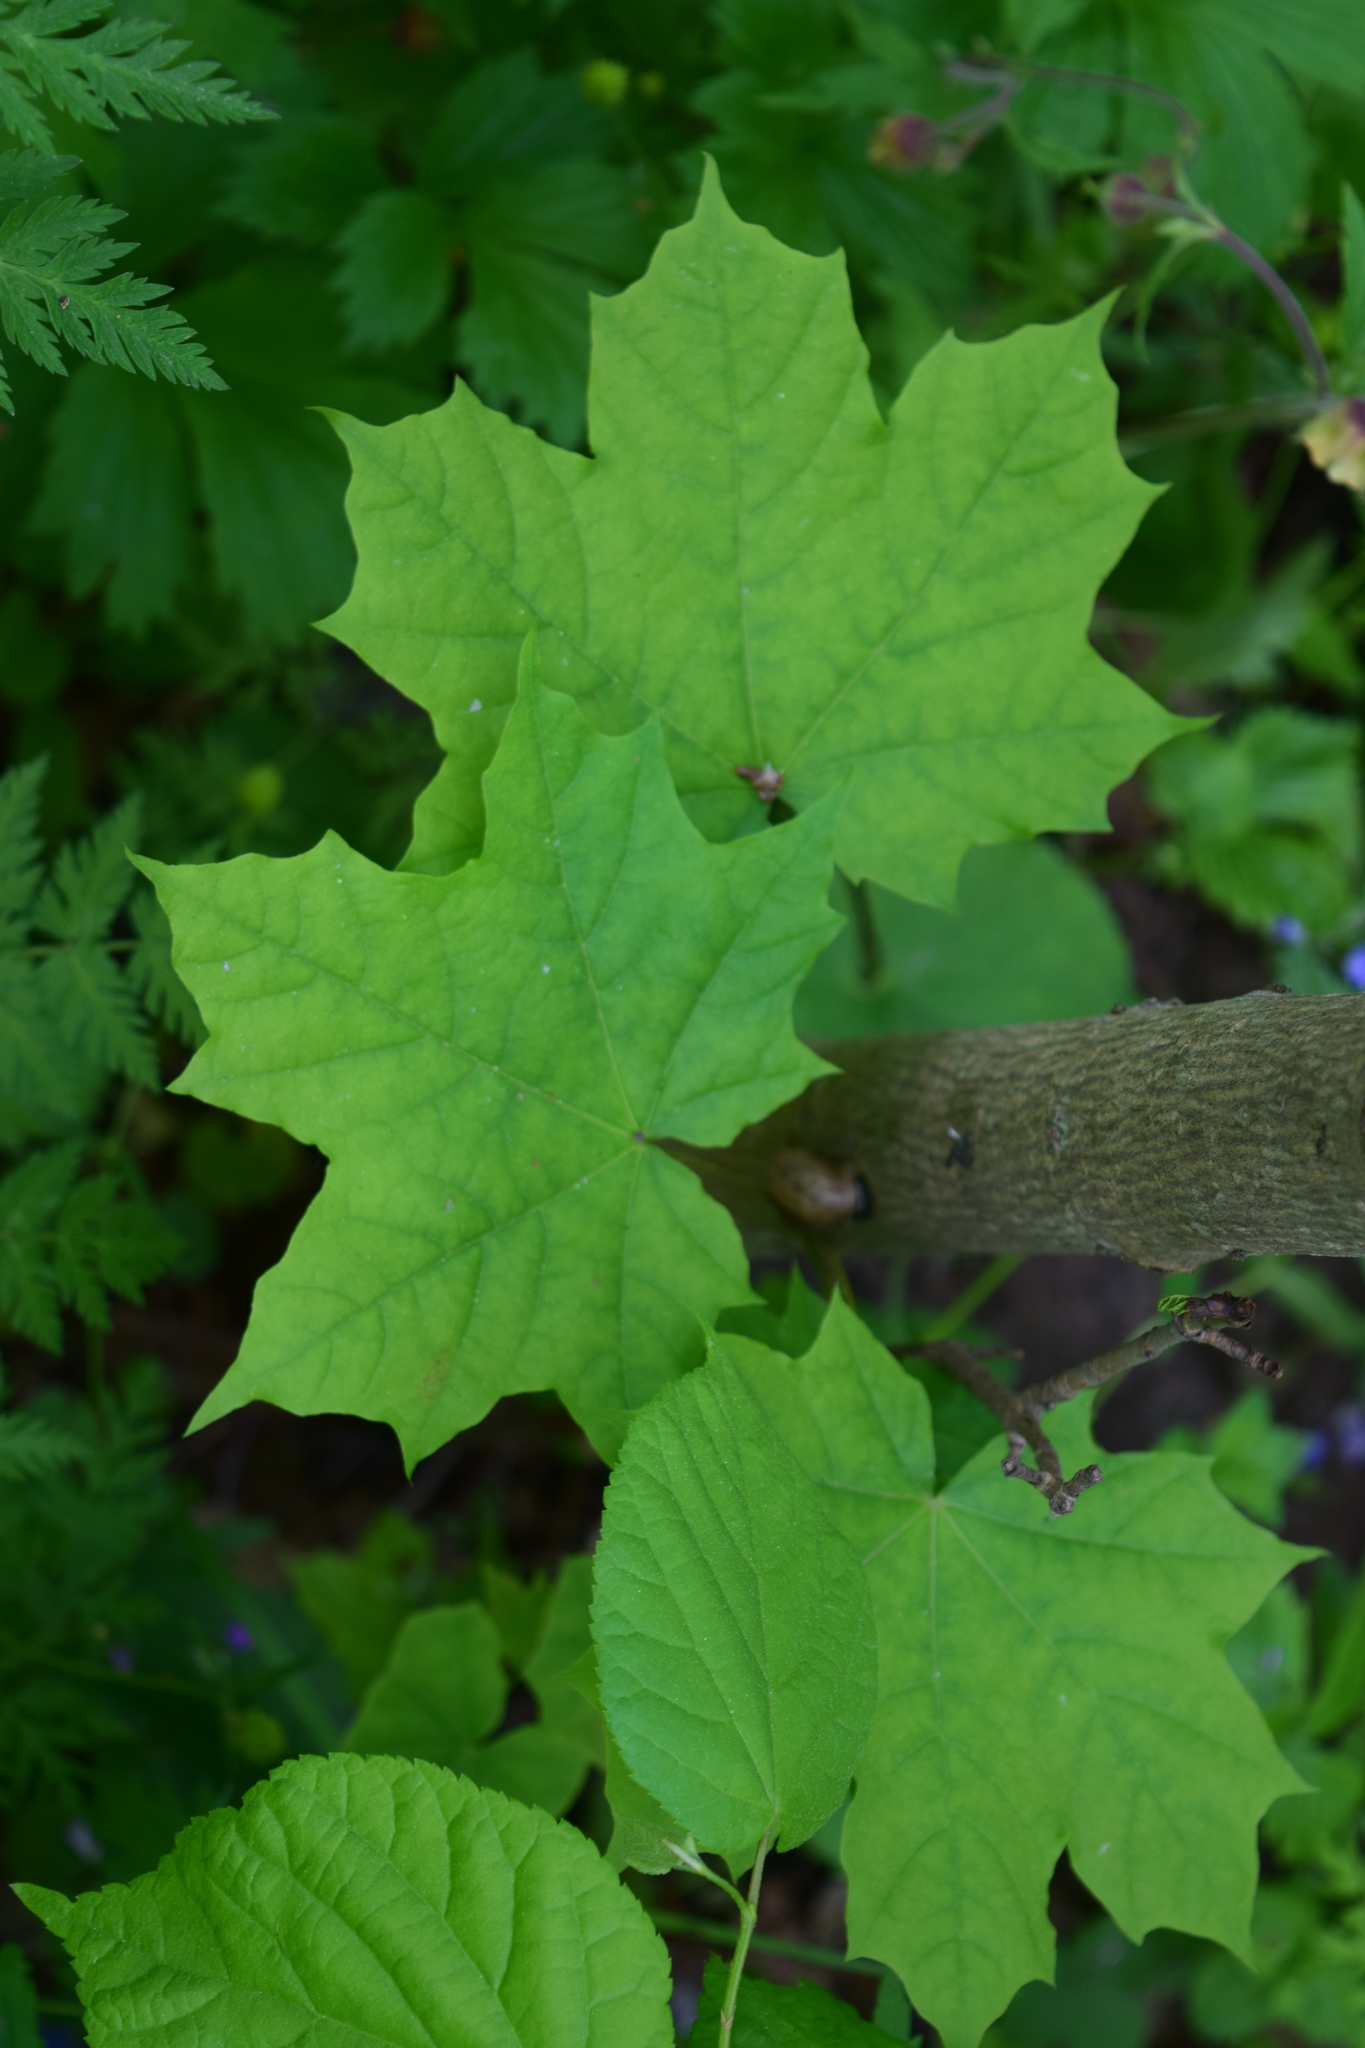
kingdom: Plantae
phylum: Tracheophyta
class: Magnoliopsida
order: Sapindales
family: Sapindaceae
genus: Acer
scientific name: Acer platanoides
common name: Norway maple
